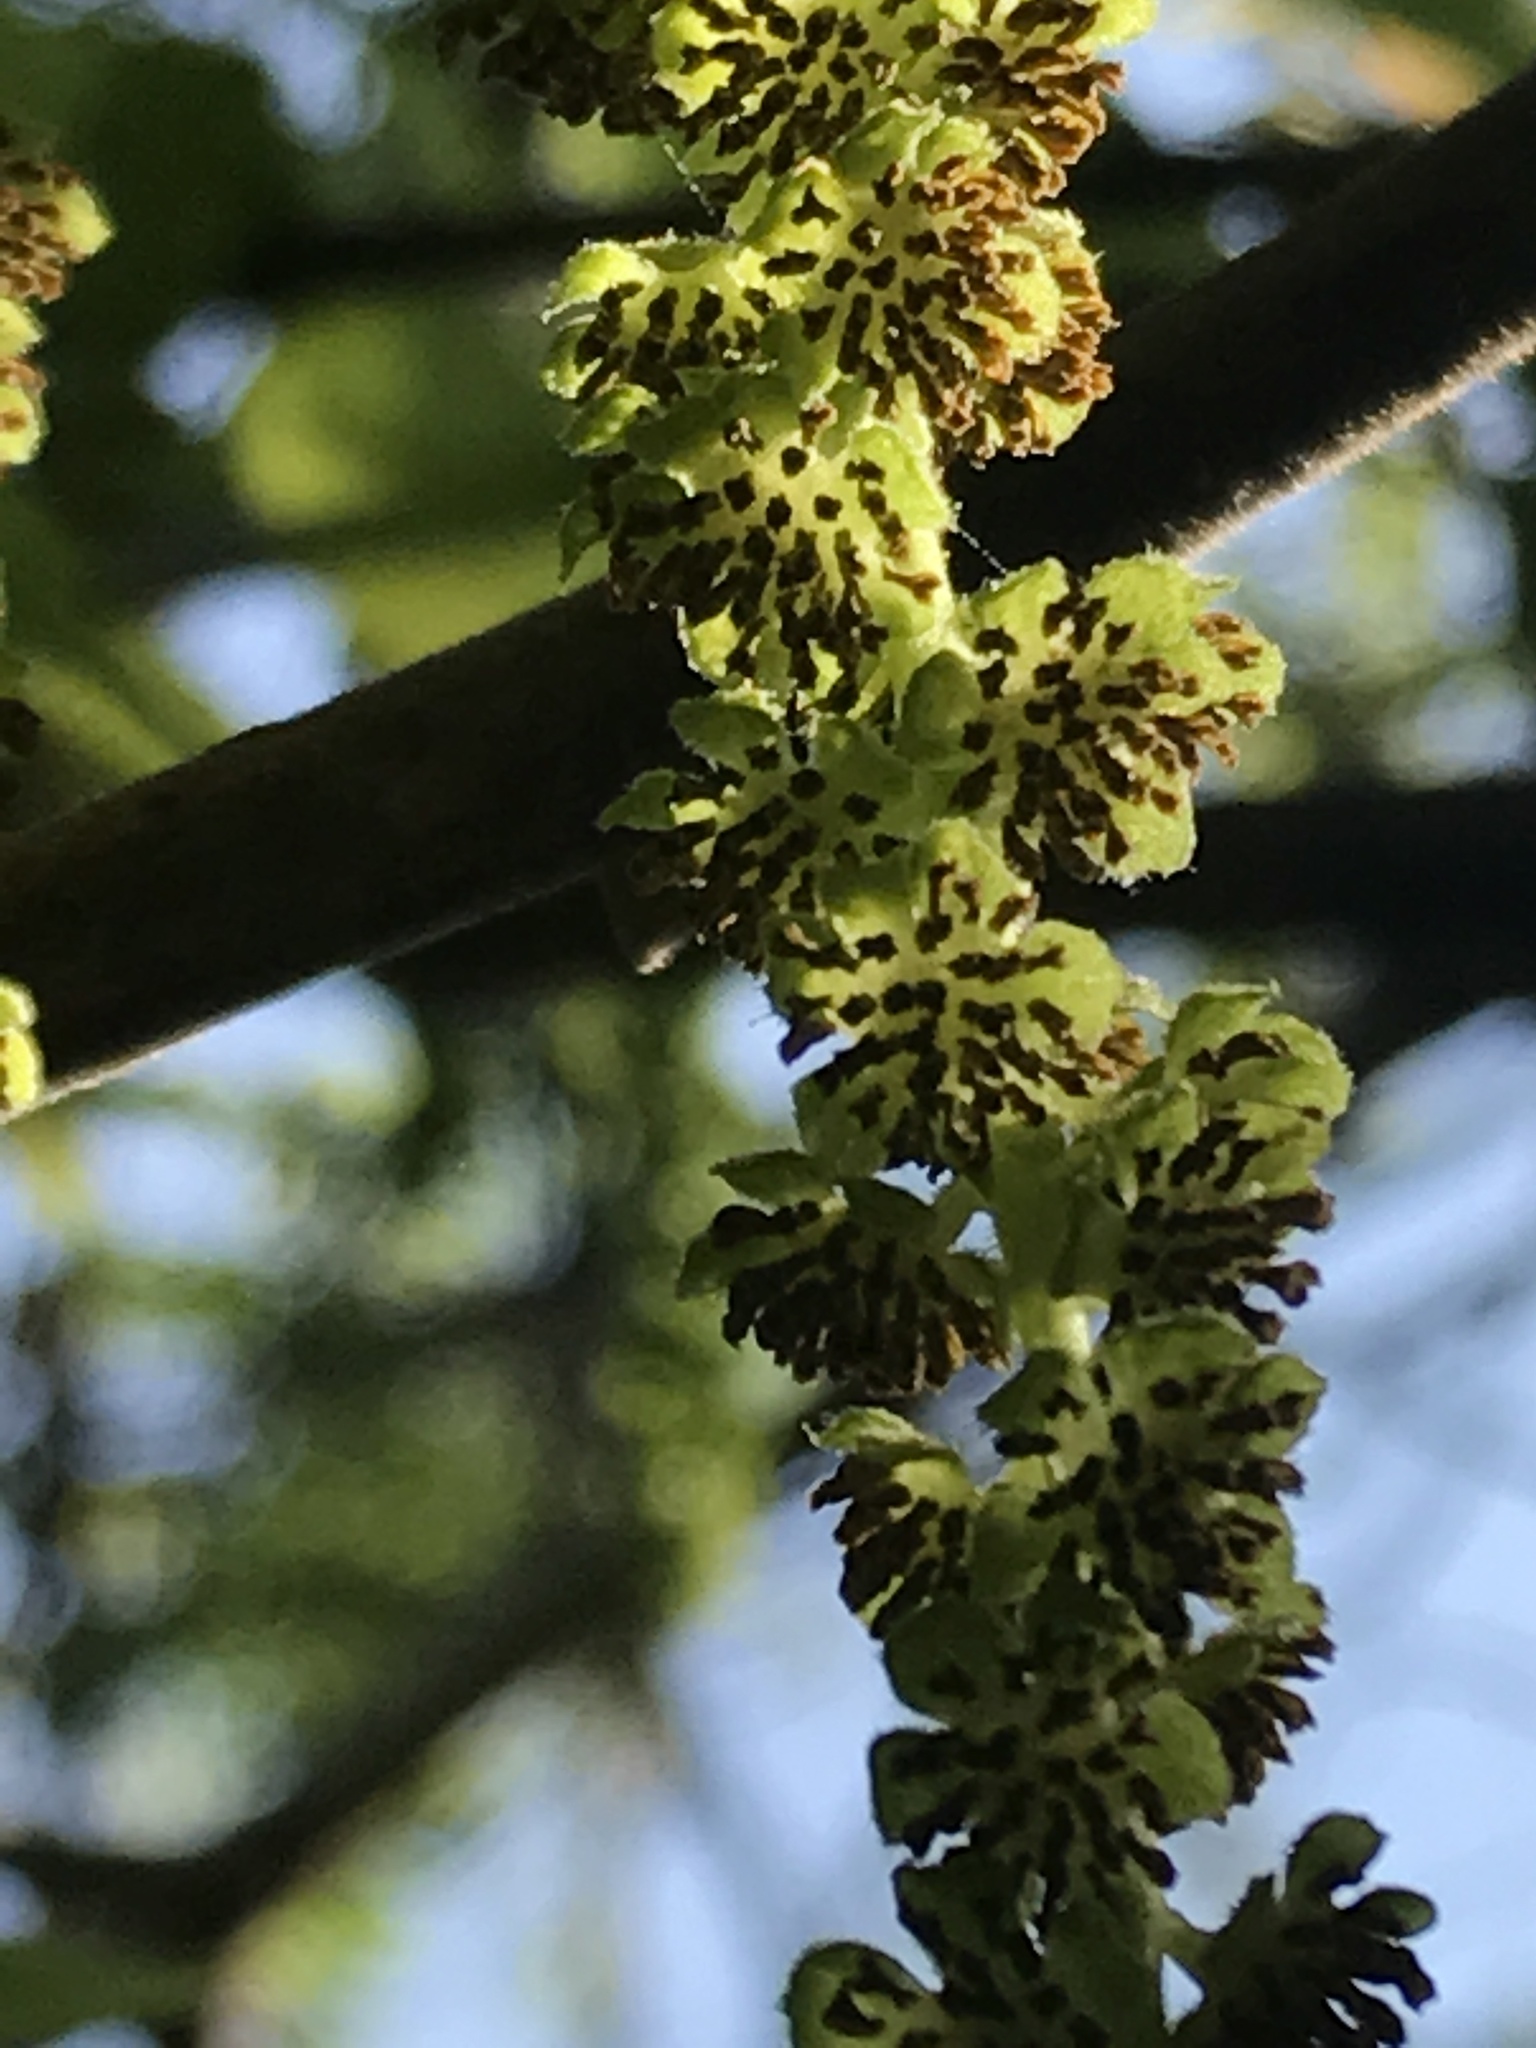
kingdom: Plantae
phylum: Tracheophyta
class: Magnoliopsida
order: Fagales
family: Juglandaceae
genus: Juglans
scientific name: Juglans nigra
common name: Black walnut
